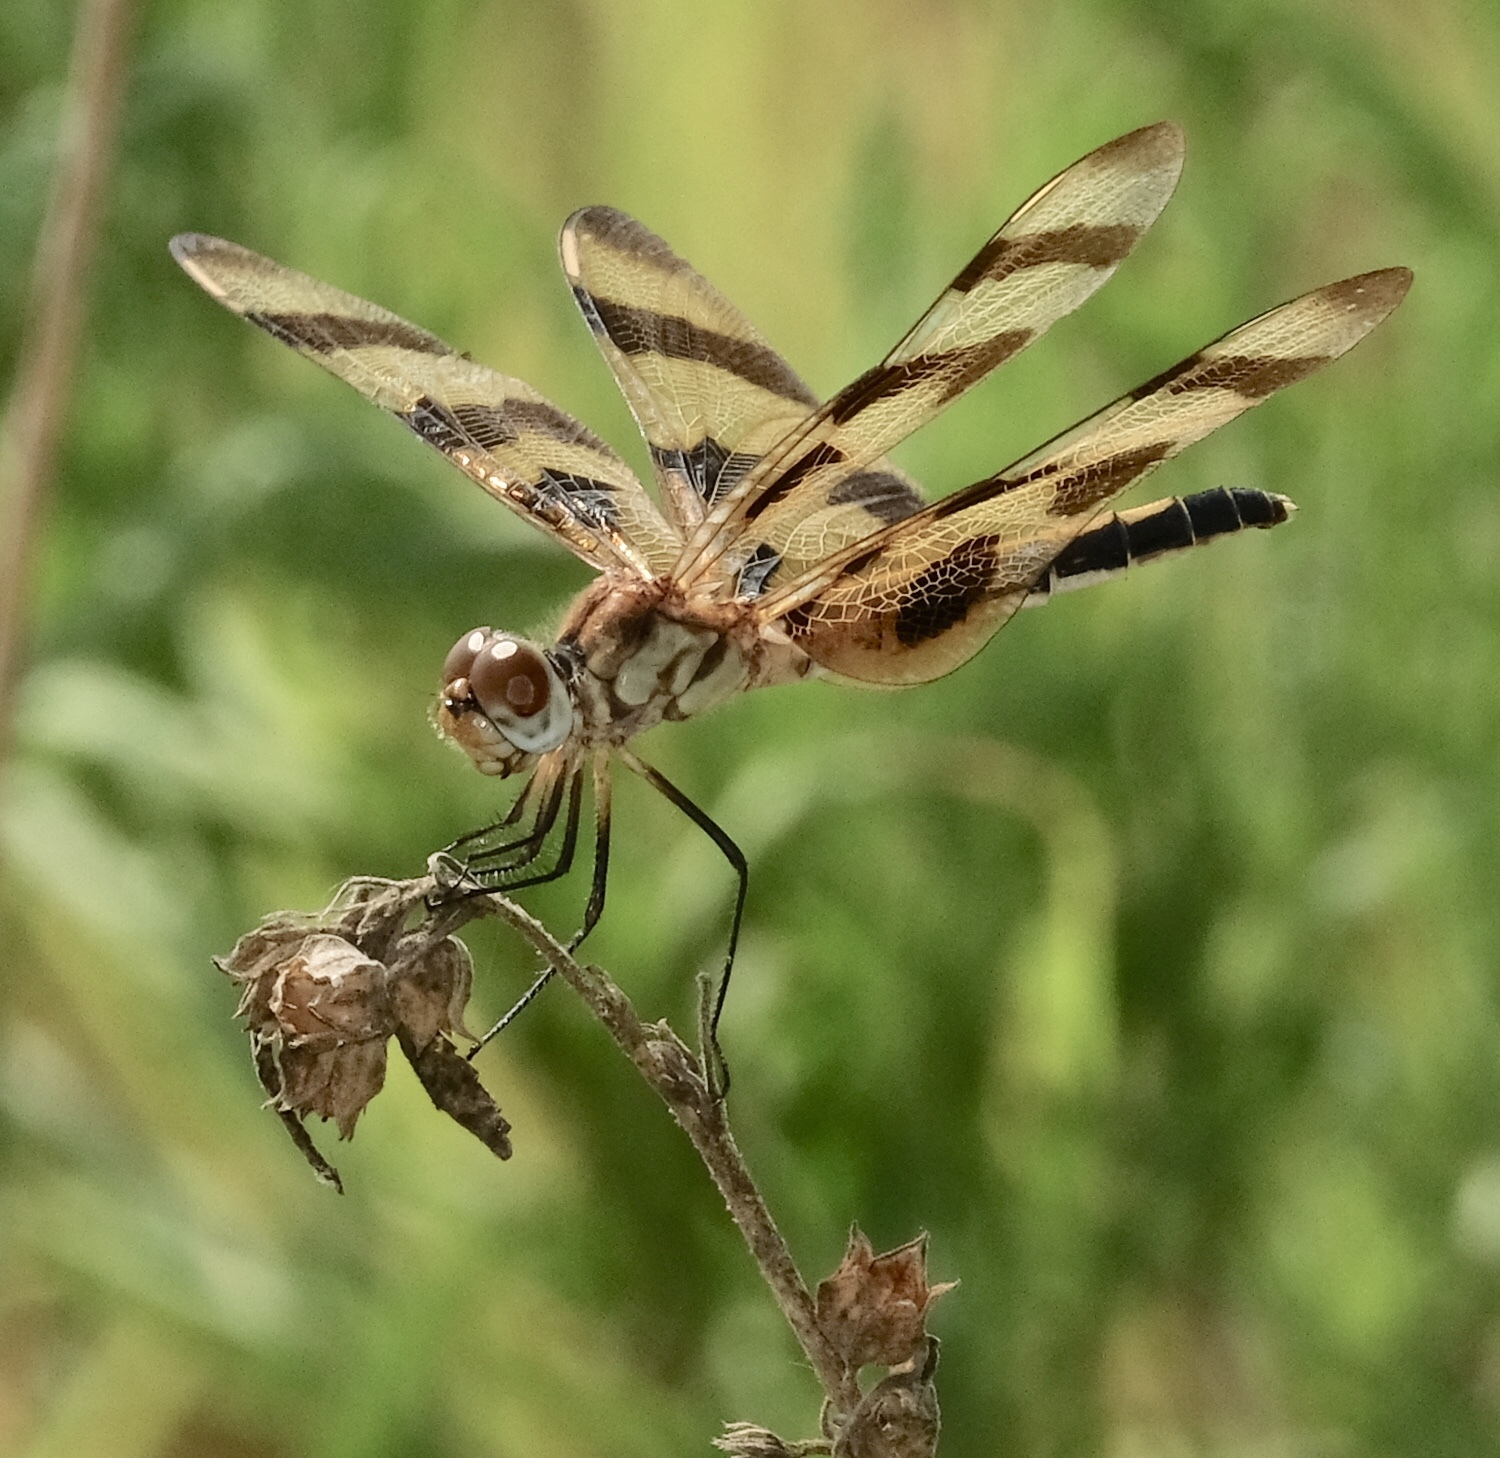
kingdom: Animalia
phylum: Arthropoda
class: Insecta
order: Odonata
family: Libellulidae
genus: Celithemis
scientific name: Celithemis eponina
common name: Halloween pennant
